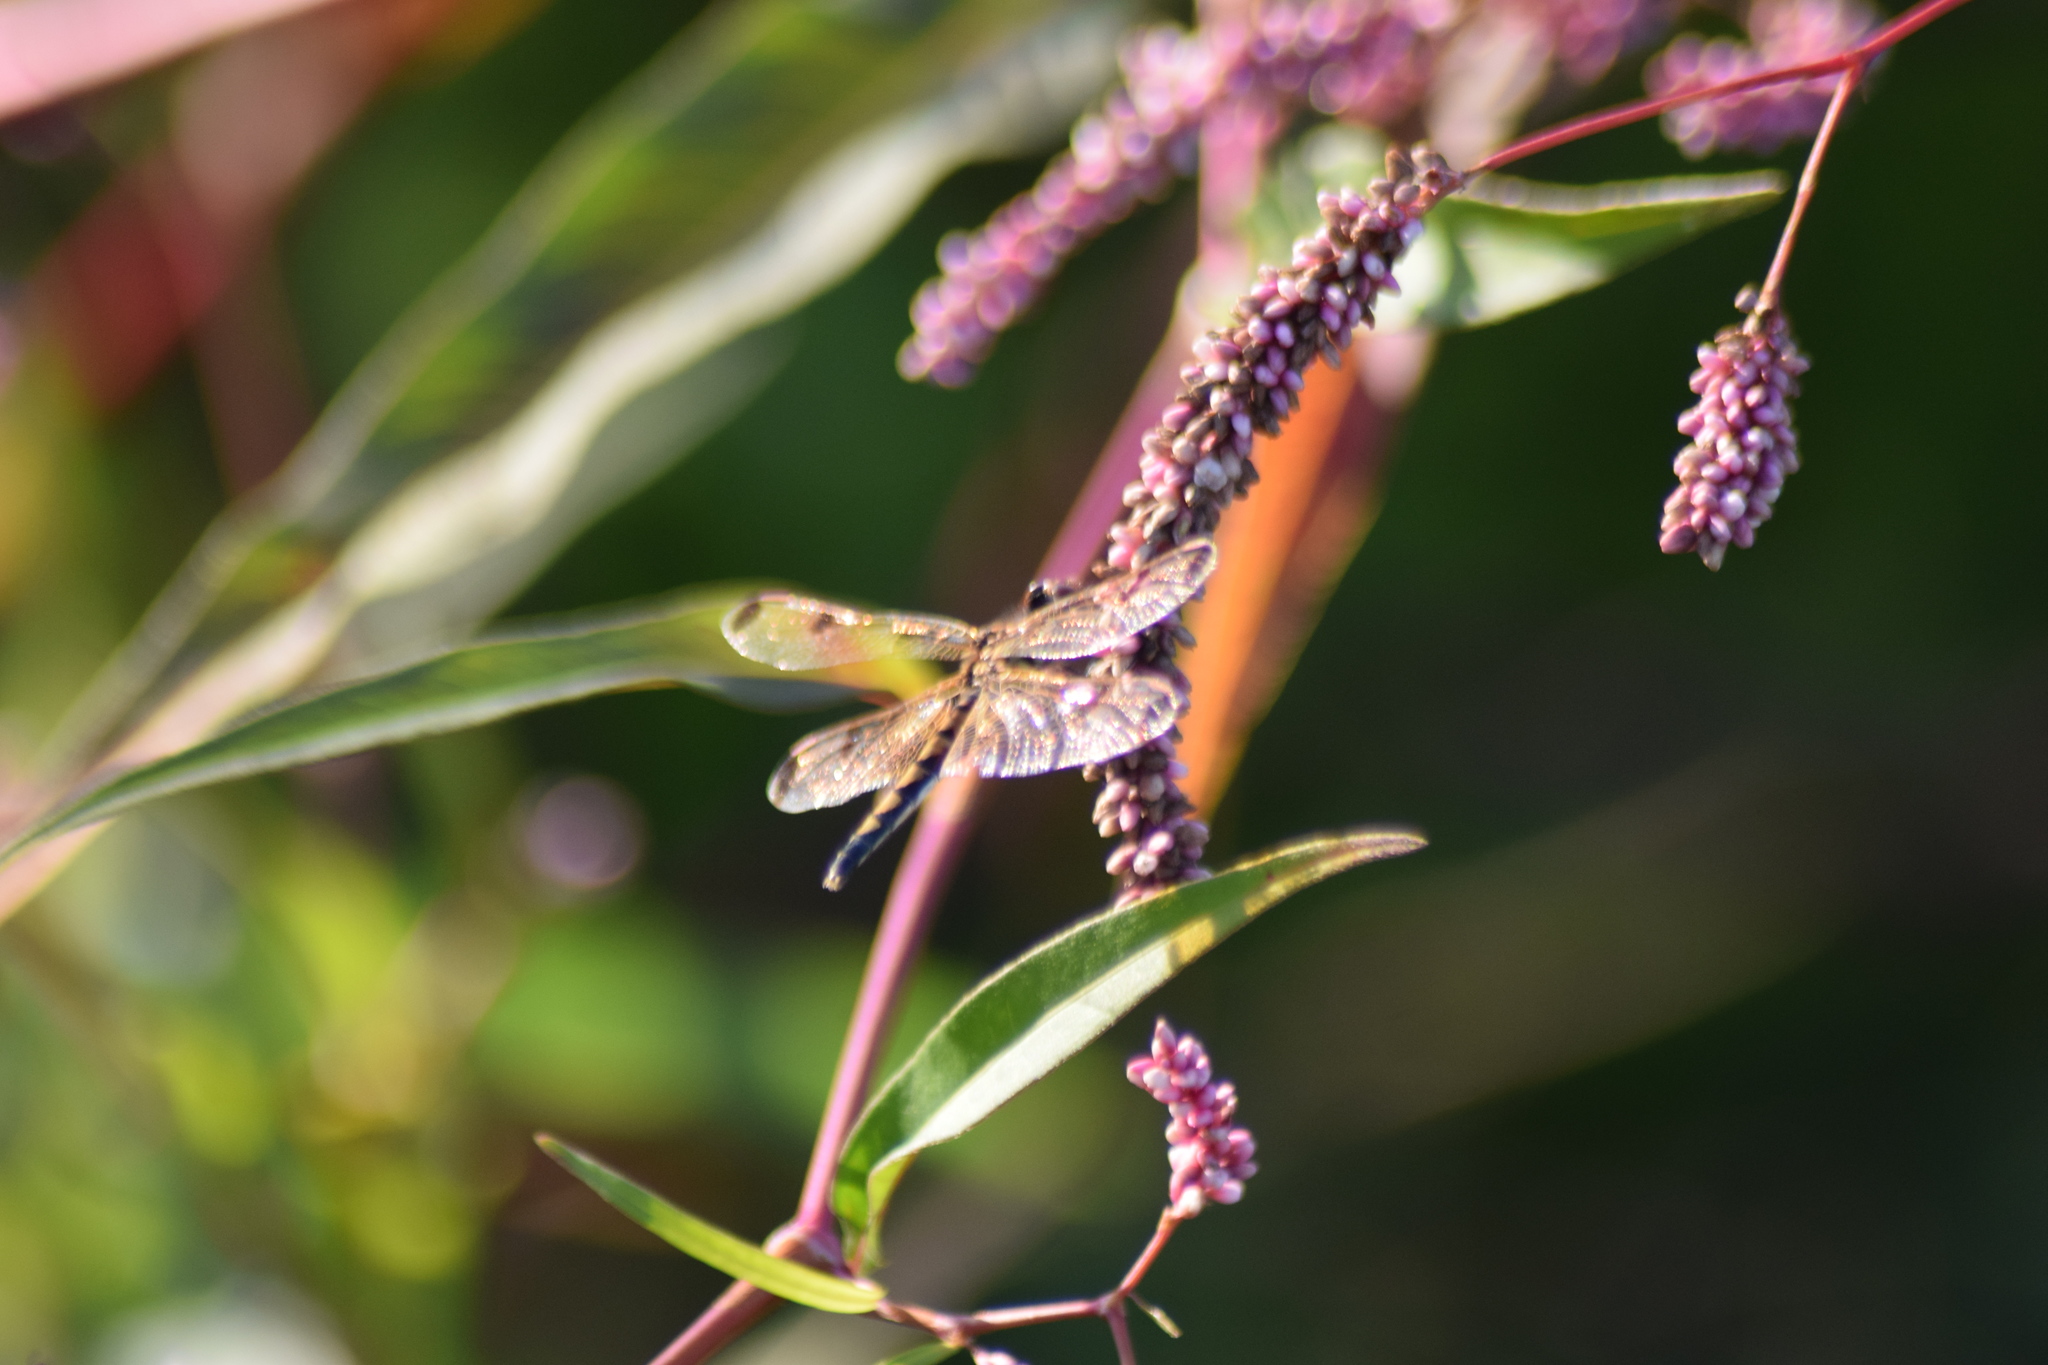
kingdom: Animalia
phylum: Arthropoda
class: Insecta
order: Odonata
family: Libellulidae
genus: Celithemis
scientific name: Celithemis elisa
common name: Calico pennant
